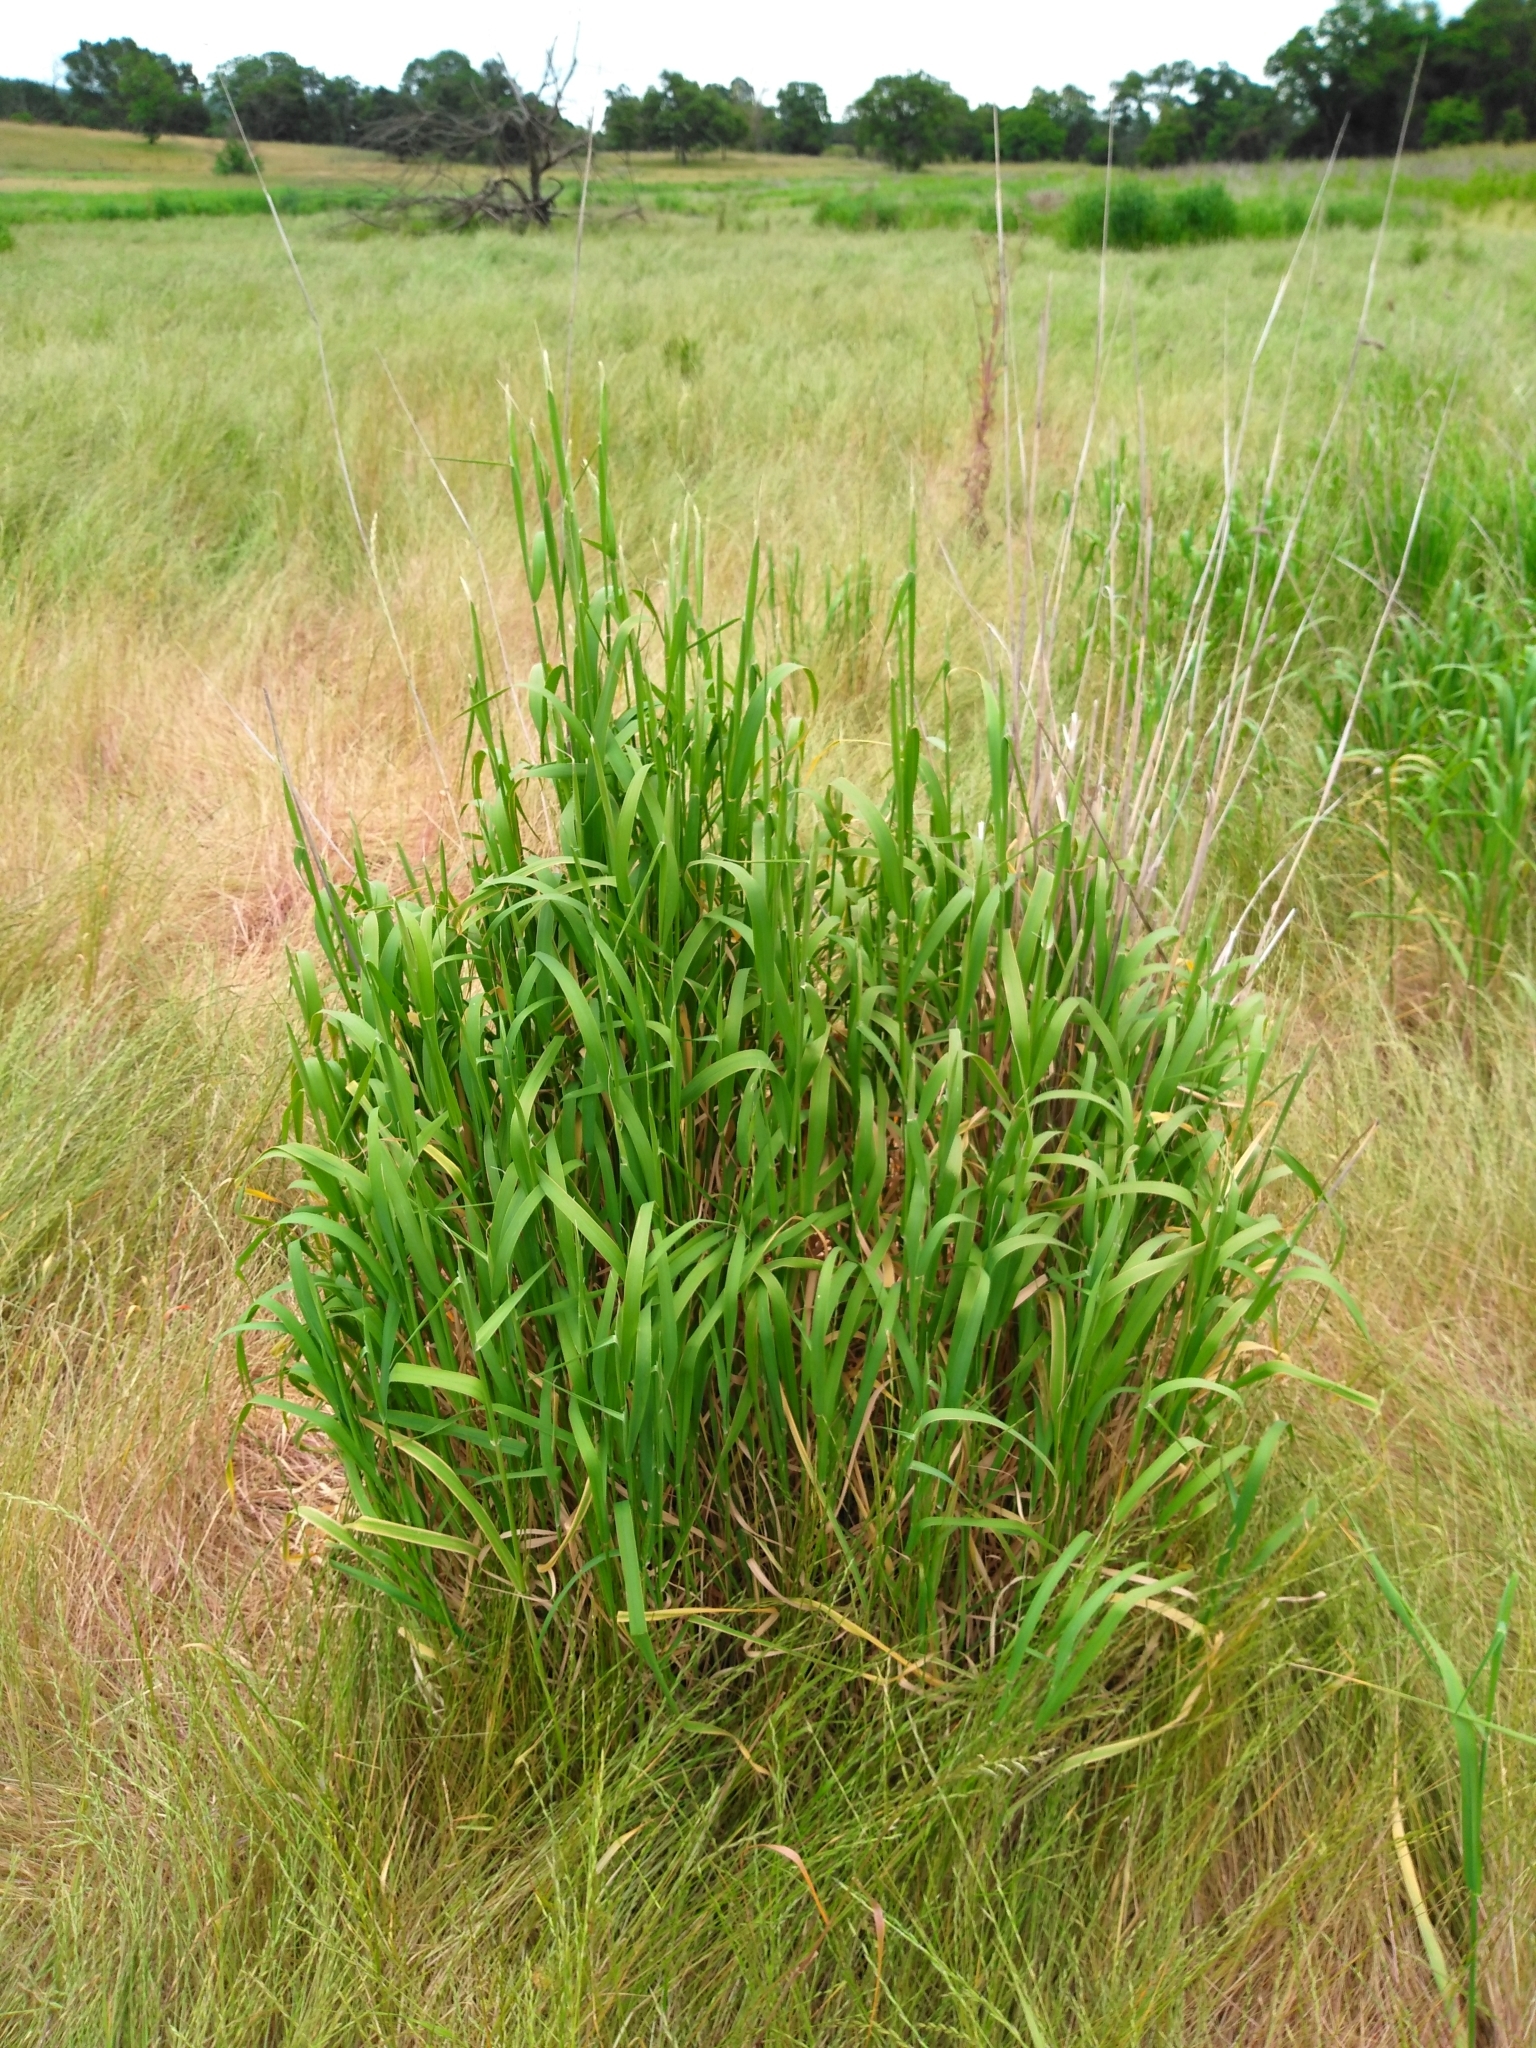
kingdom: Plantae
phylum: Tracheophyta
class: Liliopsida
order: Poales
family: Poaceae
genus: Phalaris
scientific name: Phalaris aquatica
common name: Bulbous canary-grass
